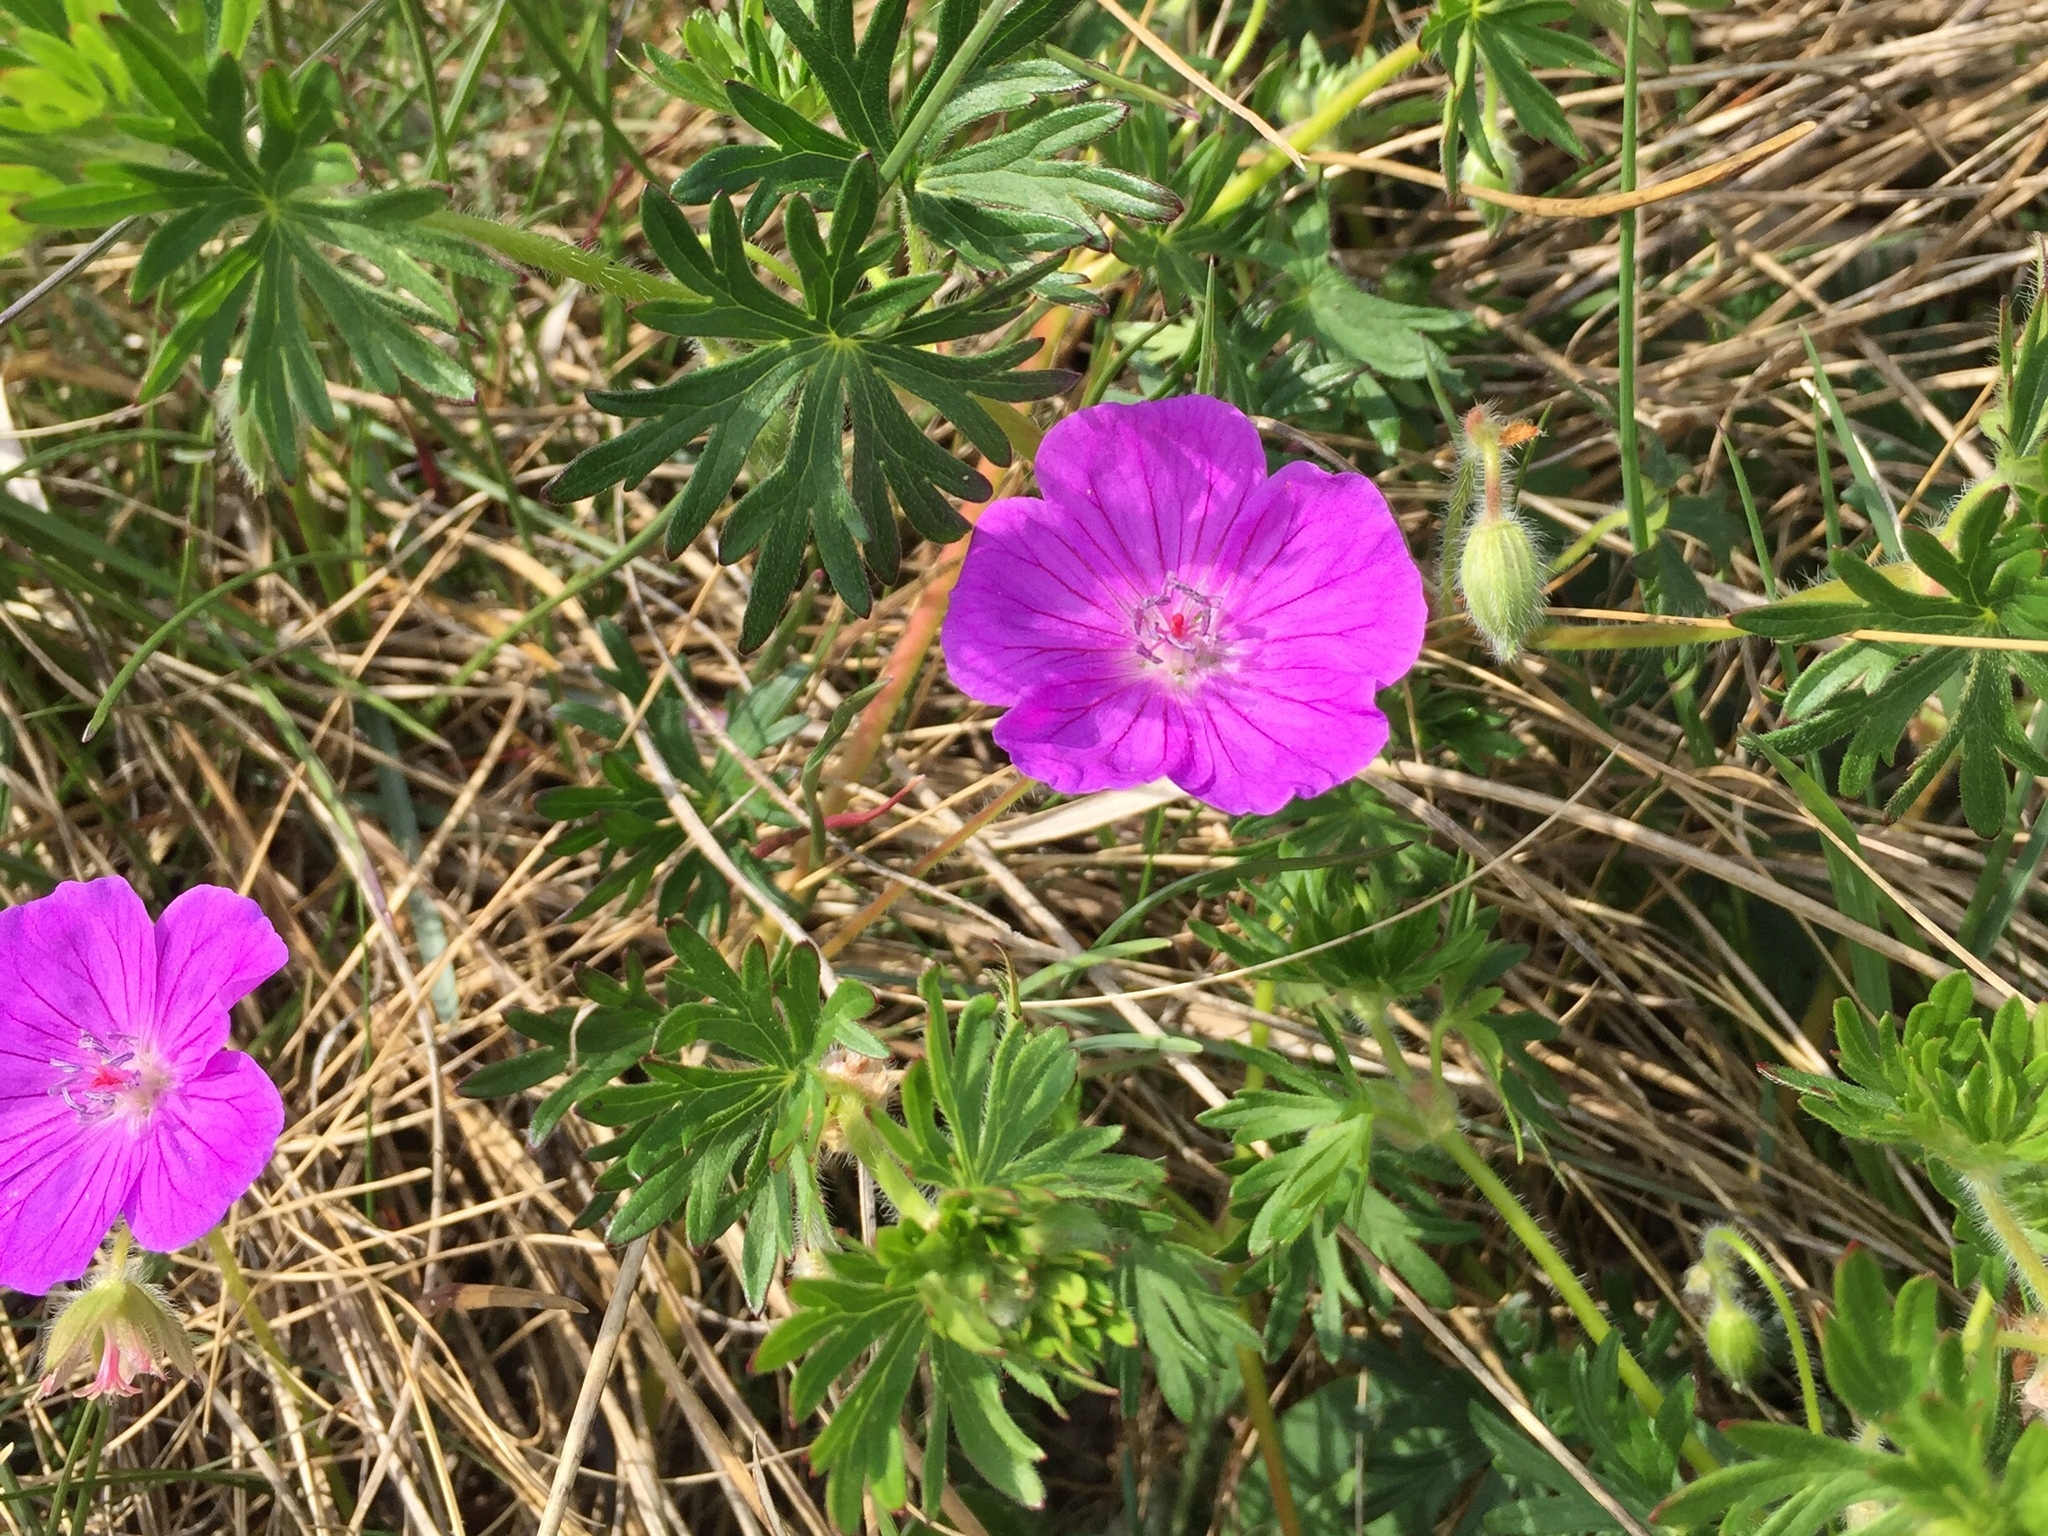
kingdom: Plantae
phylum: Tracheophyta
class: Magnoliopsida
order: Geraniales
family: Geraniaceae
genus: Geranium
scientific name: Geranium sanguineum
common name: Bloody crane's-bill
